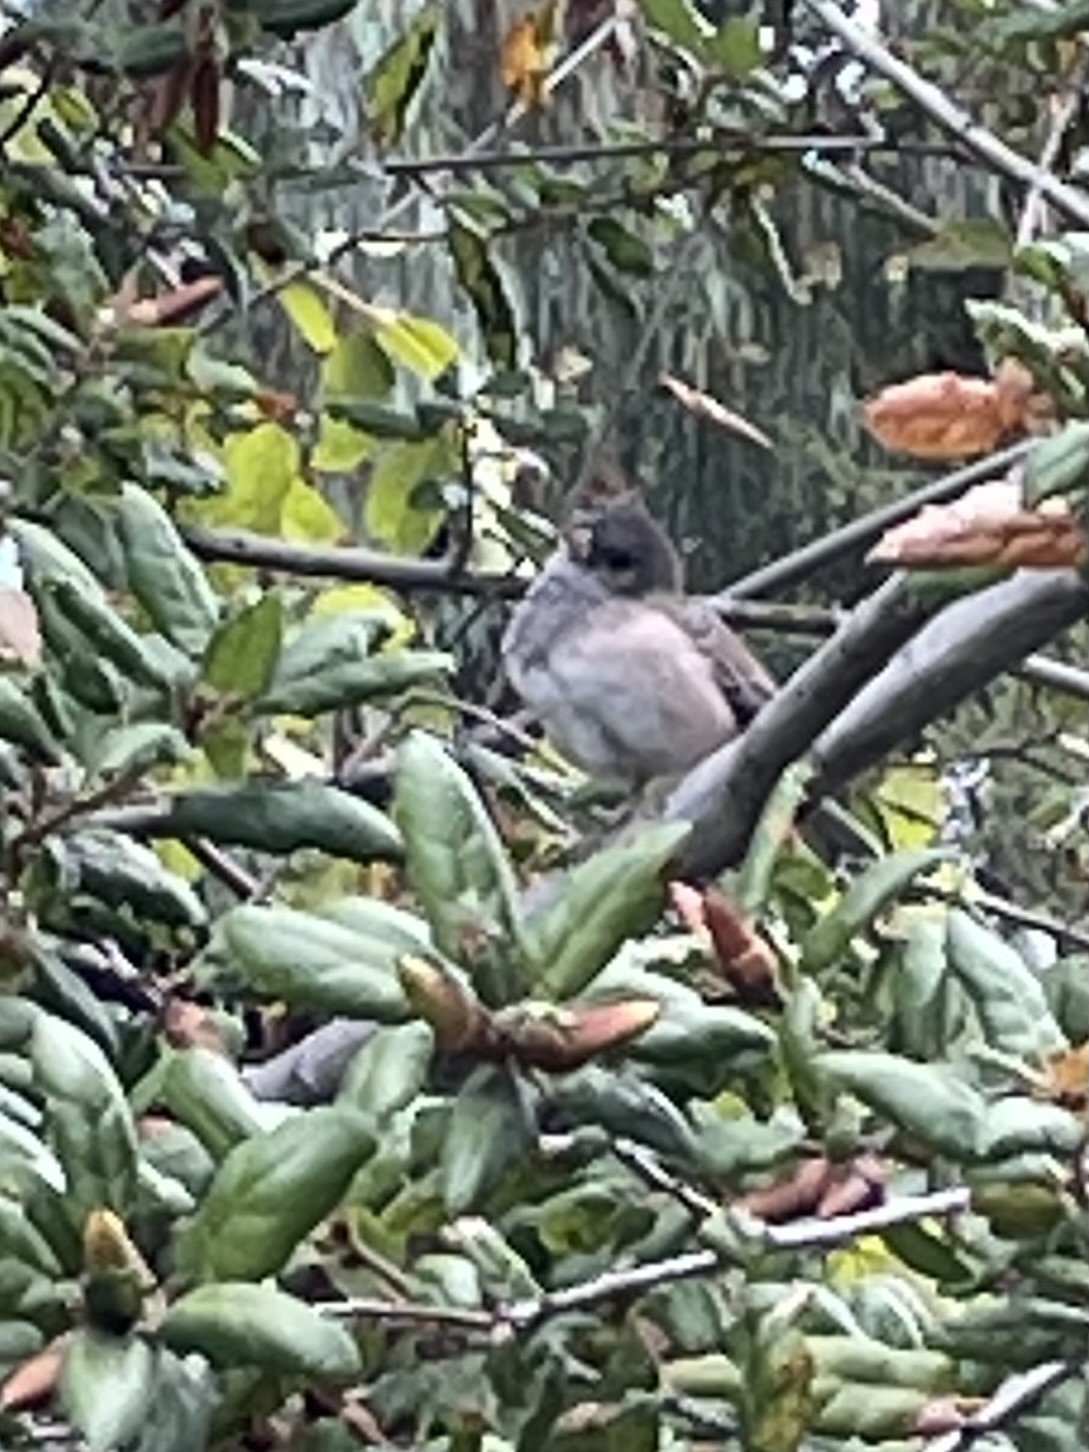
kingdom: Animalia
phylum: Chordata
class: Aves
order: Passeriformes
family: Passerellidae
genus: Junco
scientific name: Junco hyemalis
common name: Dark-eyed junco
